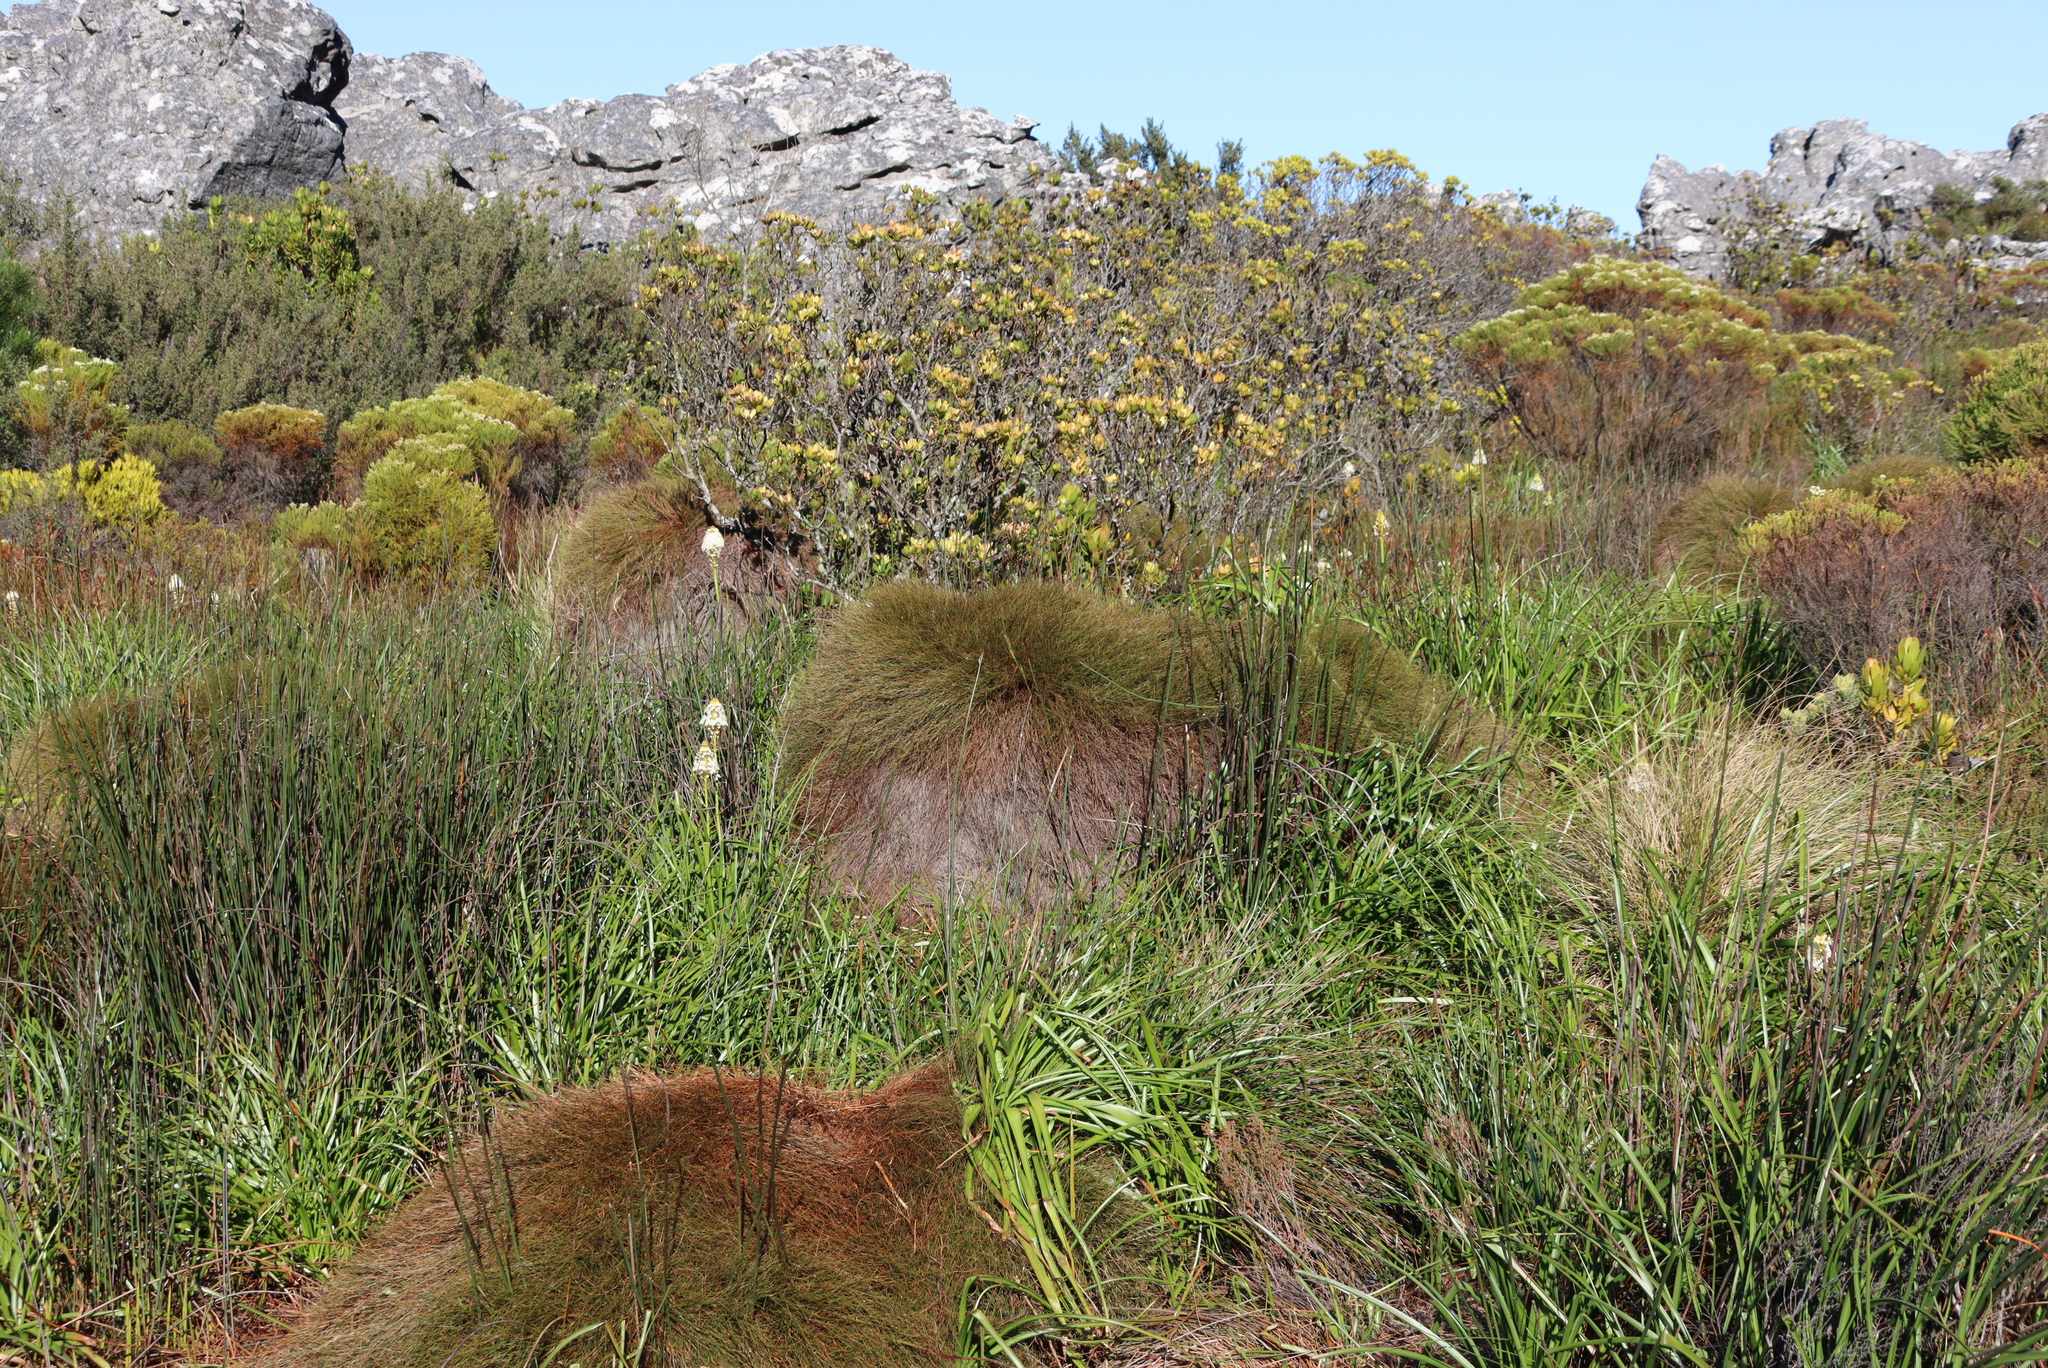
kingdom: Plantae
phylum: Tracheophyta
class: Liliopsida
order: Asparagales
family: Asphodelaceae
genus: Bulbinella
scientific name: Bulbinella nutans
